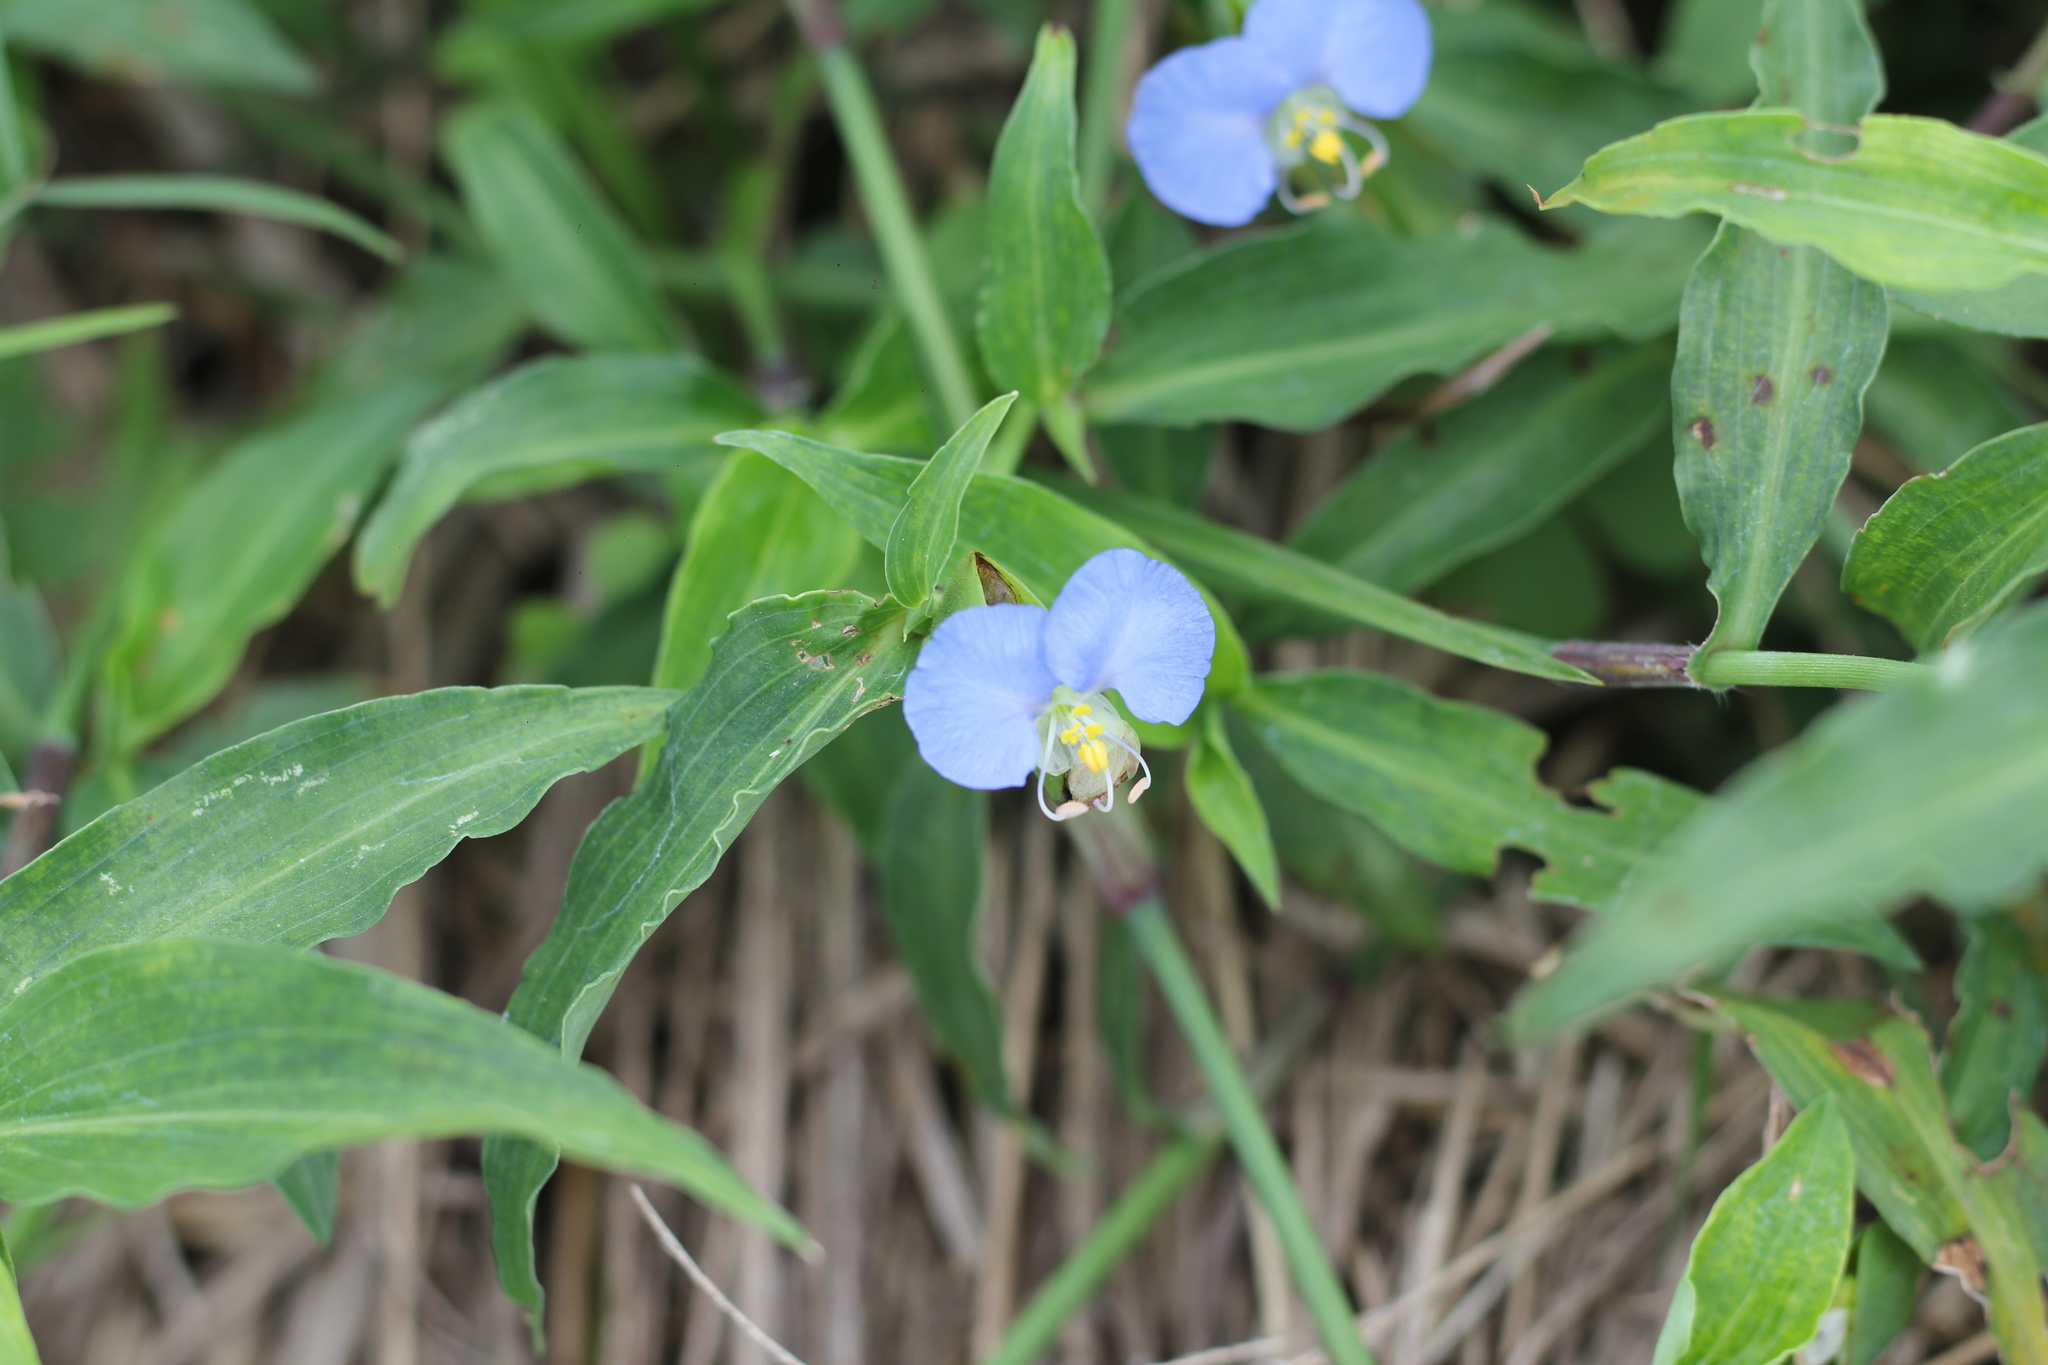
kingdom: Plantae
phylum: Tracheophyta
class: Liliopsida
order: Commelinales
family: Commelinaceae
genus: Commelina
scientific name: Commelina erecta
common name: Blousel blommetjie
